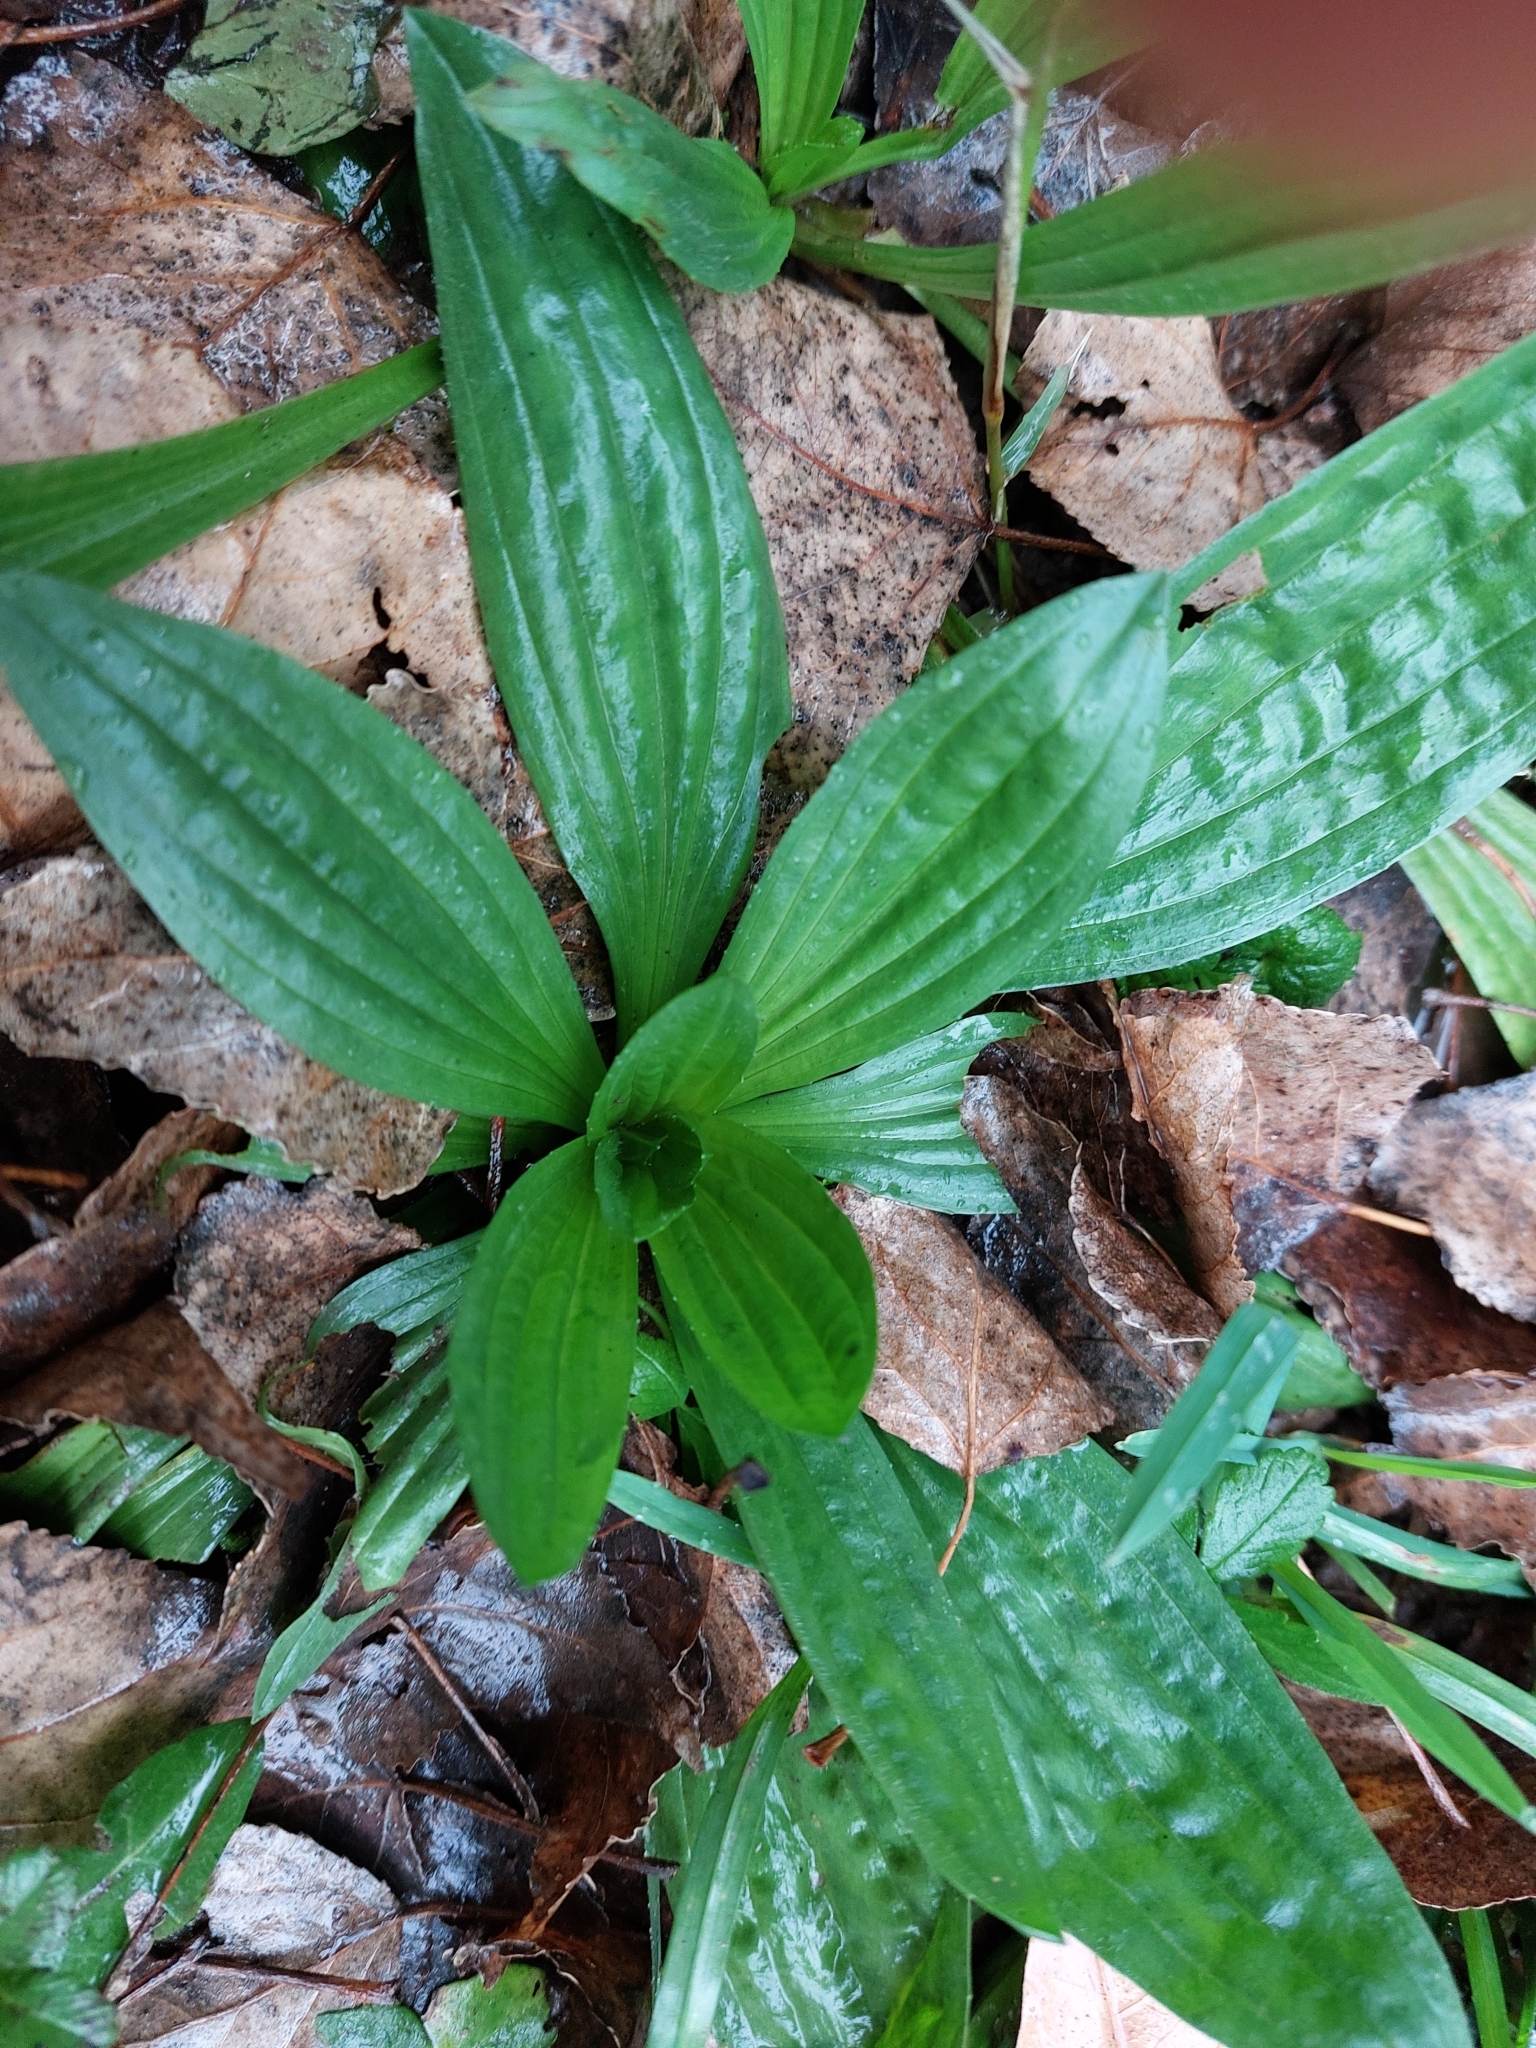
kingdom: Plantae
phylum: Tracheophyta
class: Magnoliopsida
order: Lamiales
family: Plantaginaceae
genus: Plantago
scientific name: Plantago lanceolata
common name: Ribwort plantain
